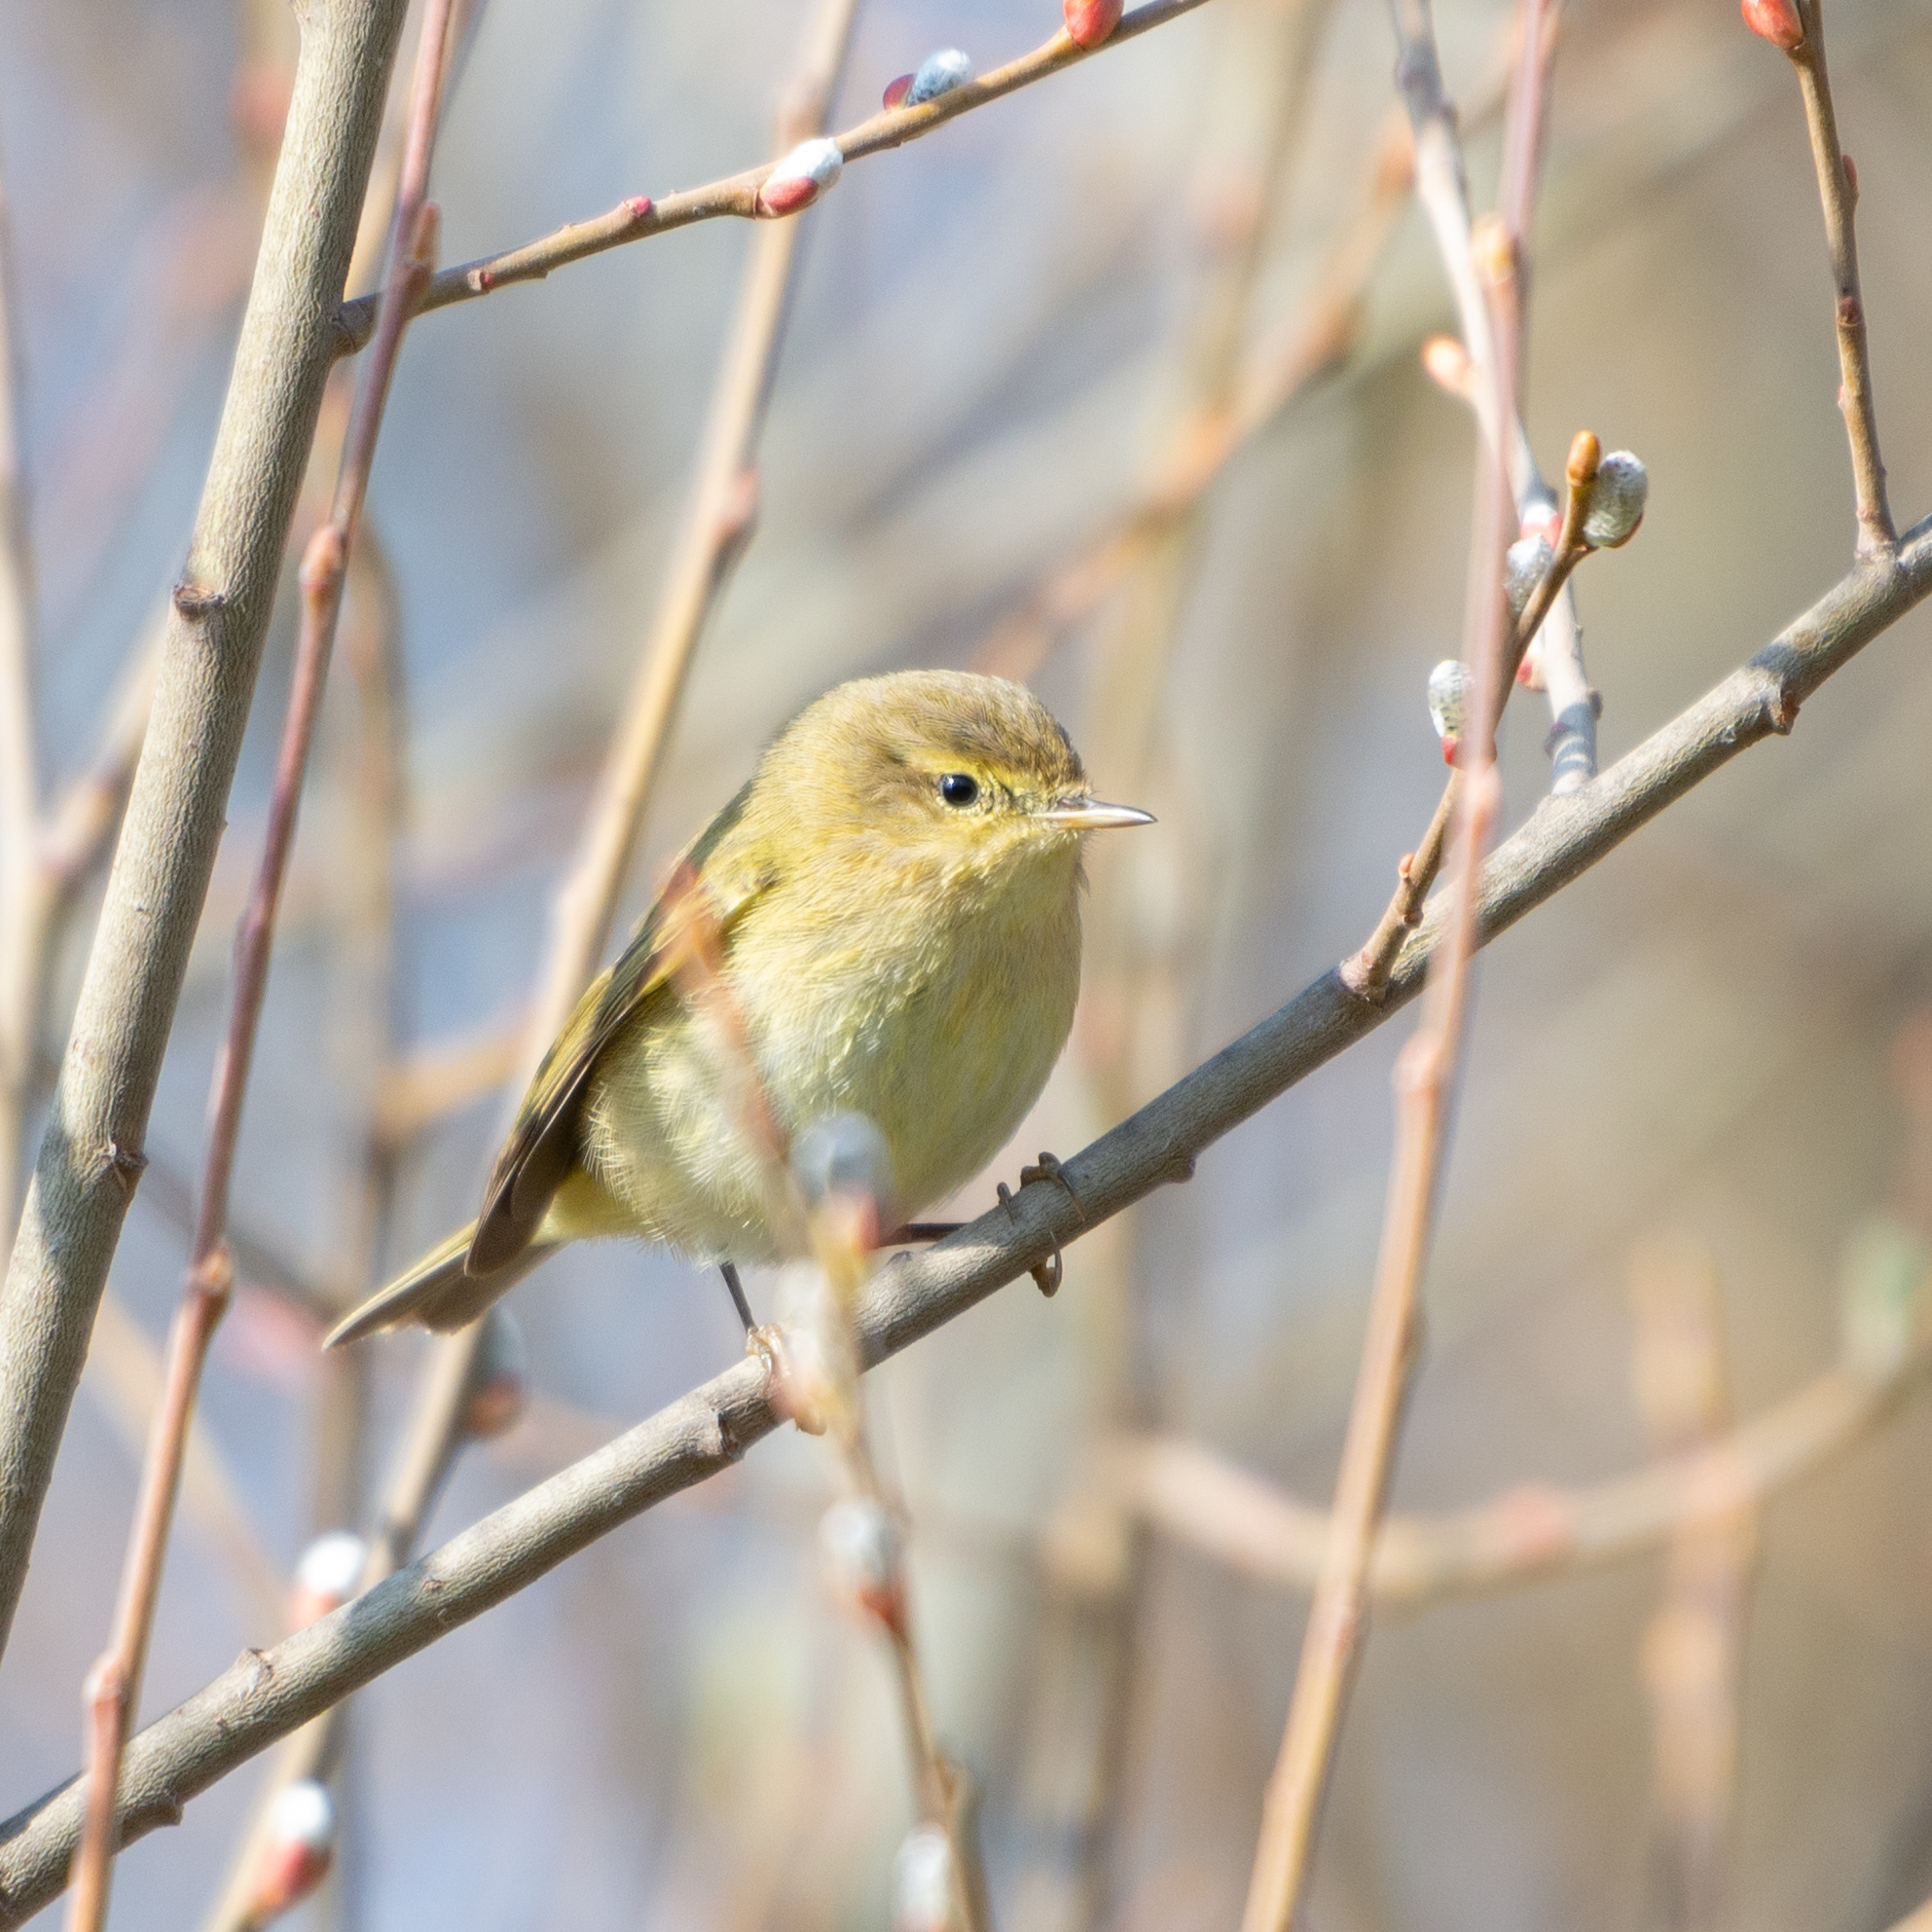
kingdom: Animalia
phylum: Chordata
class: Aves
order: Passeriformes
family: Phylloscopidae
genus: Phylloscopus
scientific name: Phylloscopus trochilus
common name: Willow warbler
